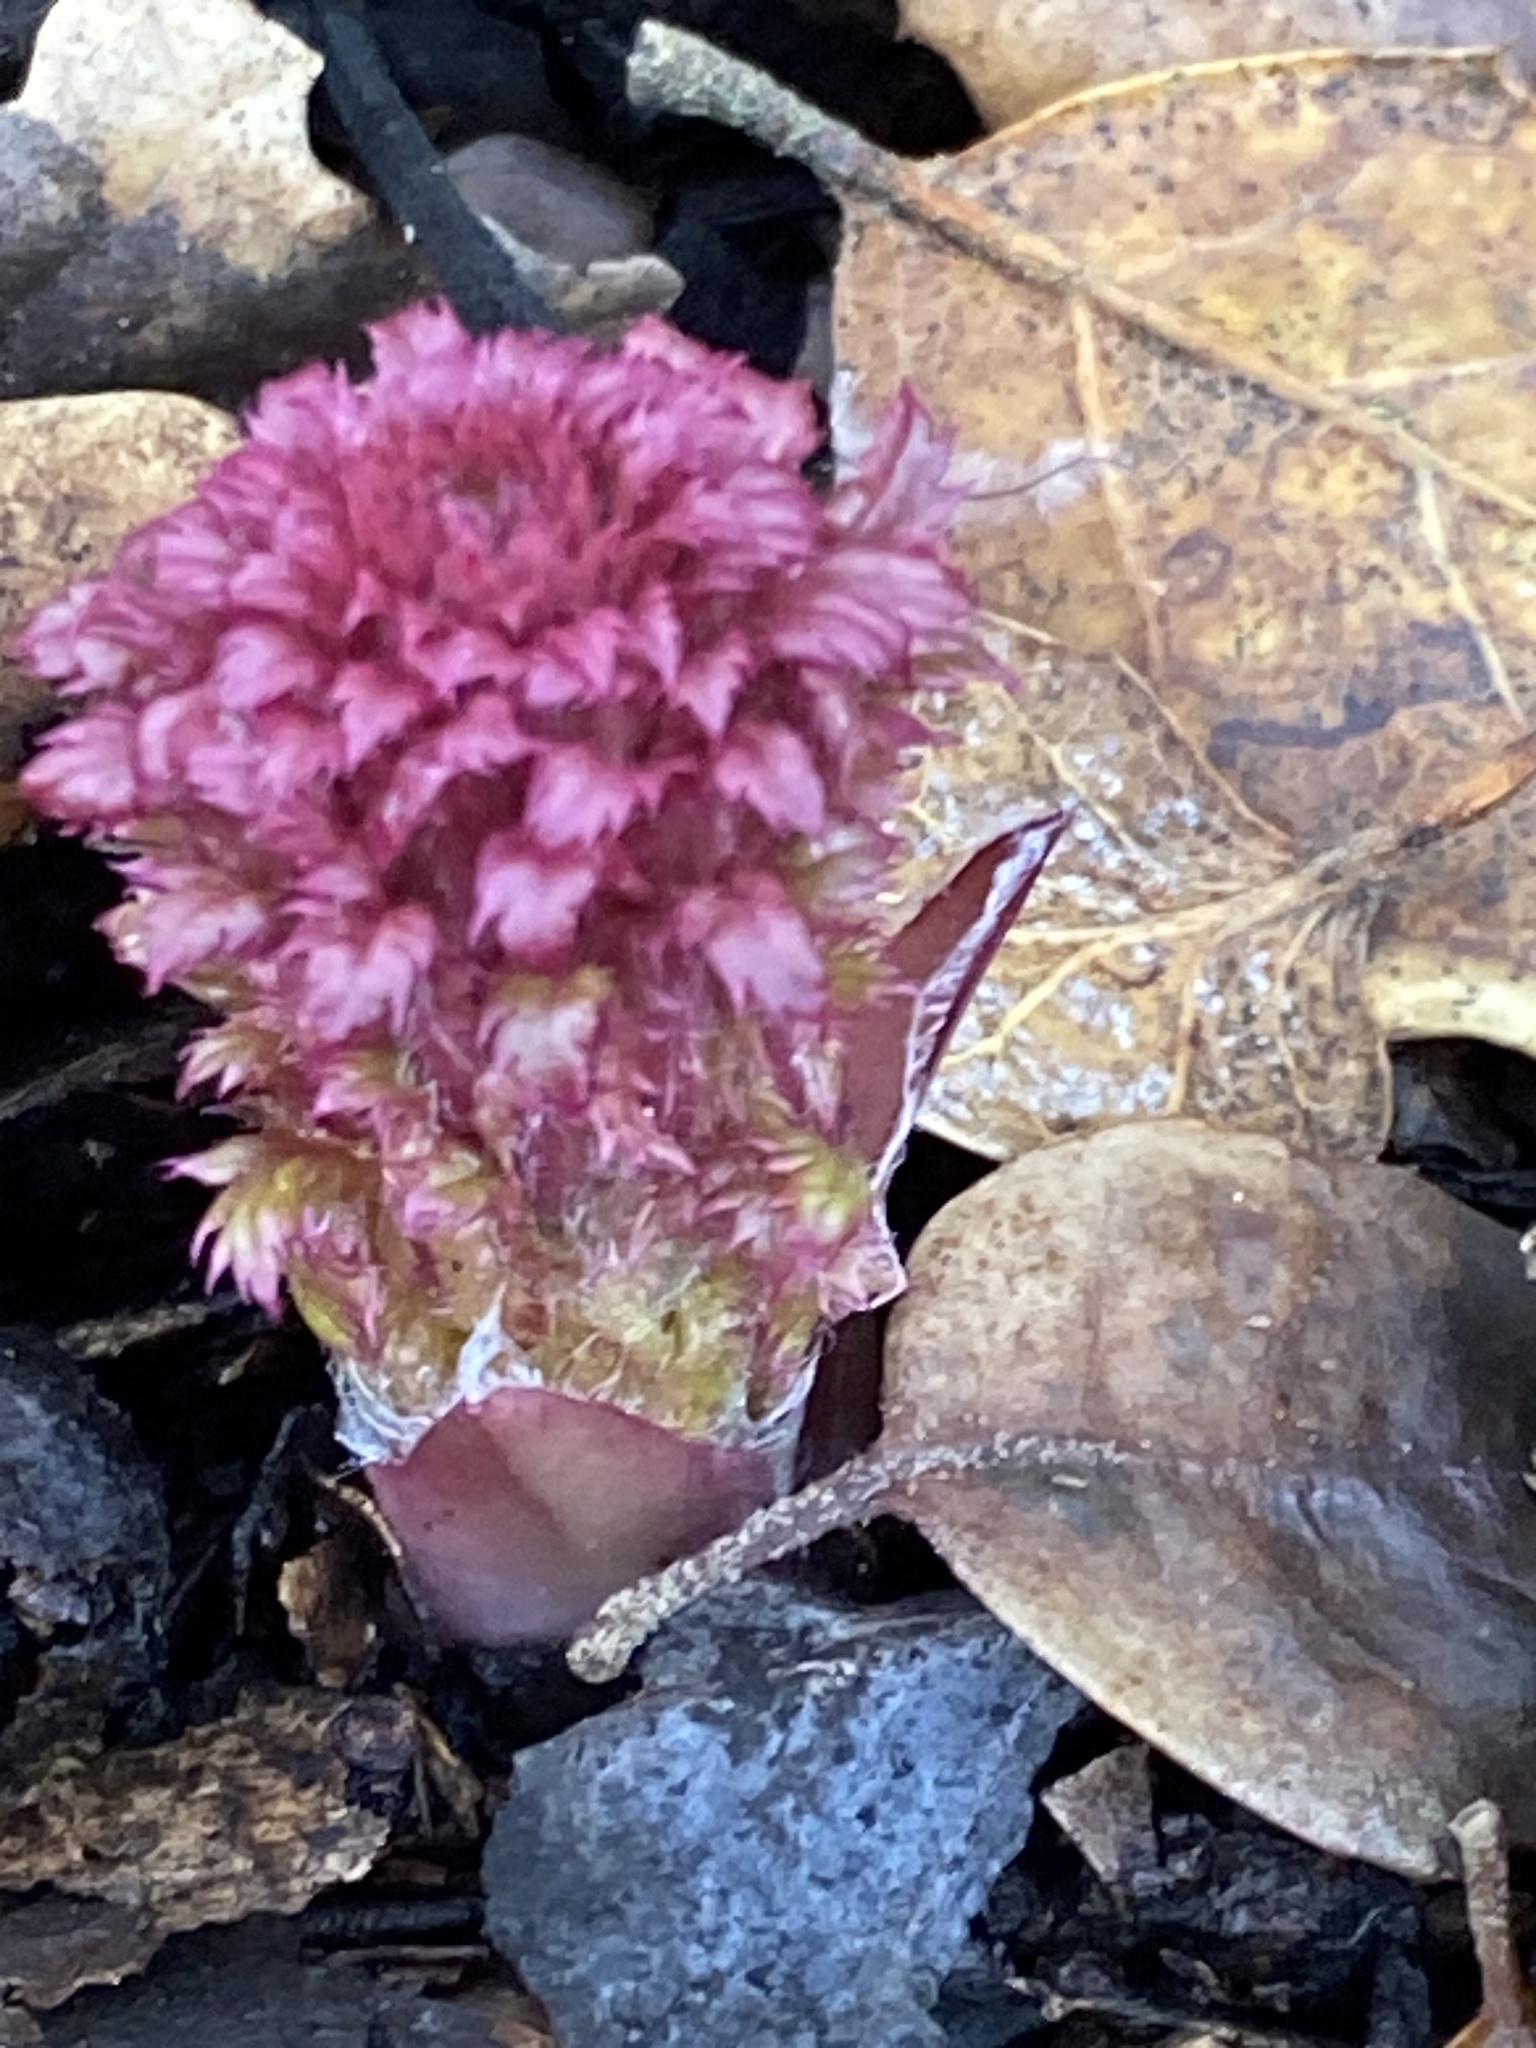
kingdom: Plantae
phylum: Tracheophyta
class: Magnoliopsida
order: Lamiales
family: Orobanchaceae
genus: Pedicularis
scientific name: Pedicularis densiflora
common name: Indian warrior
